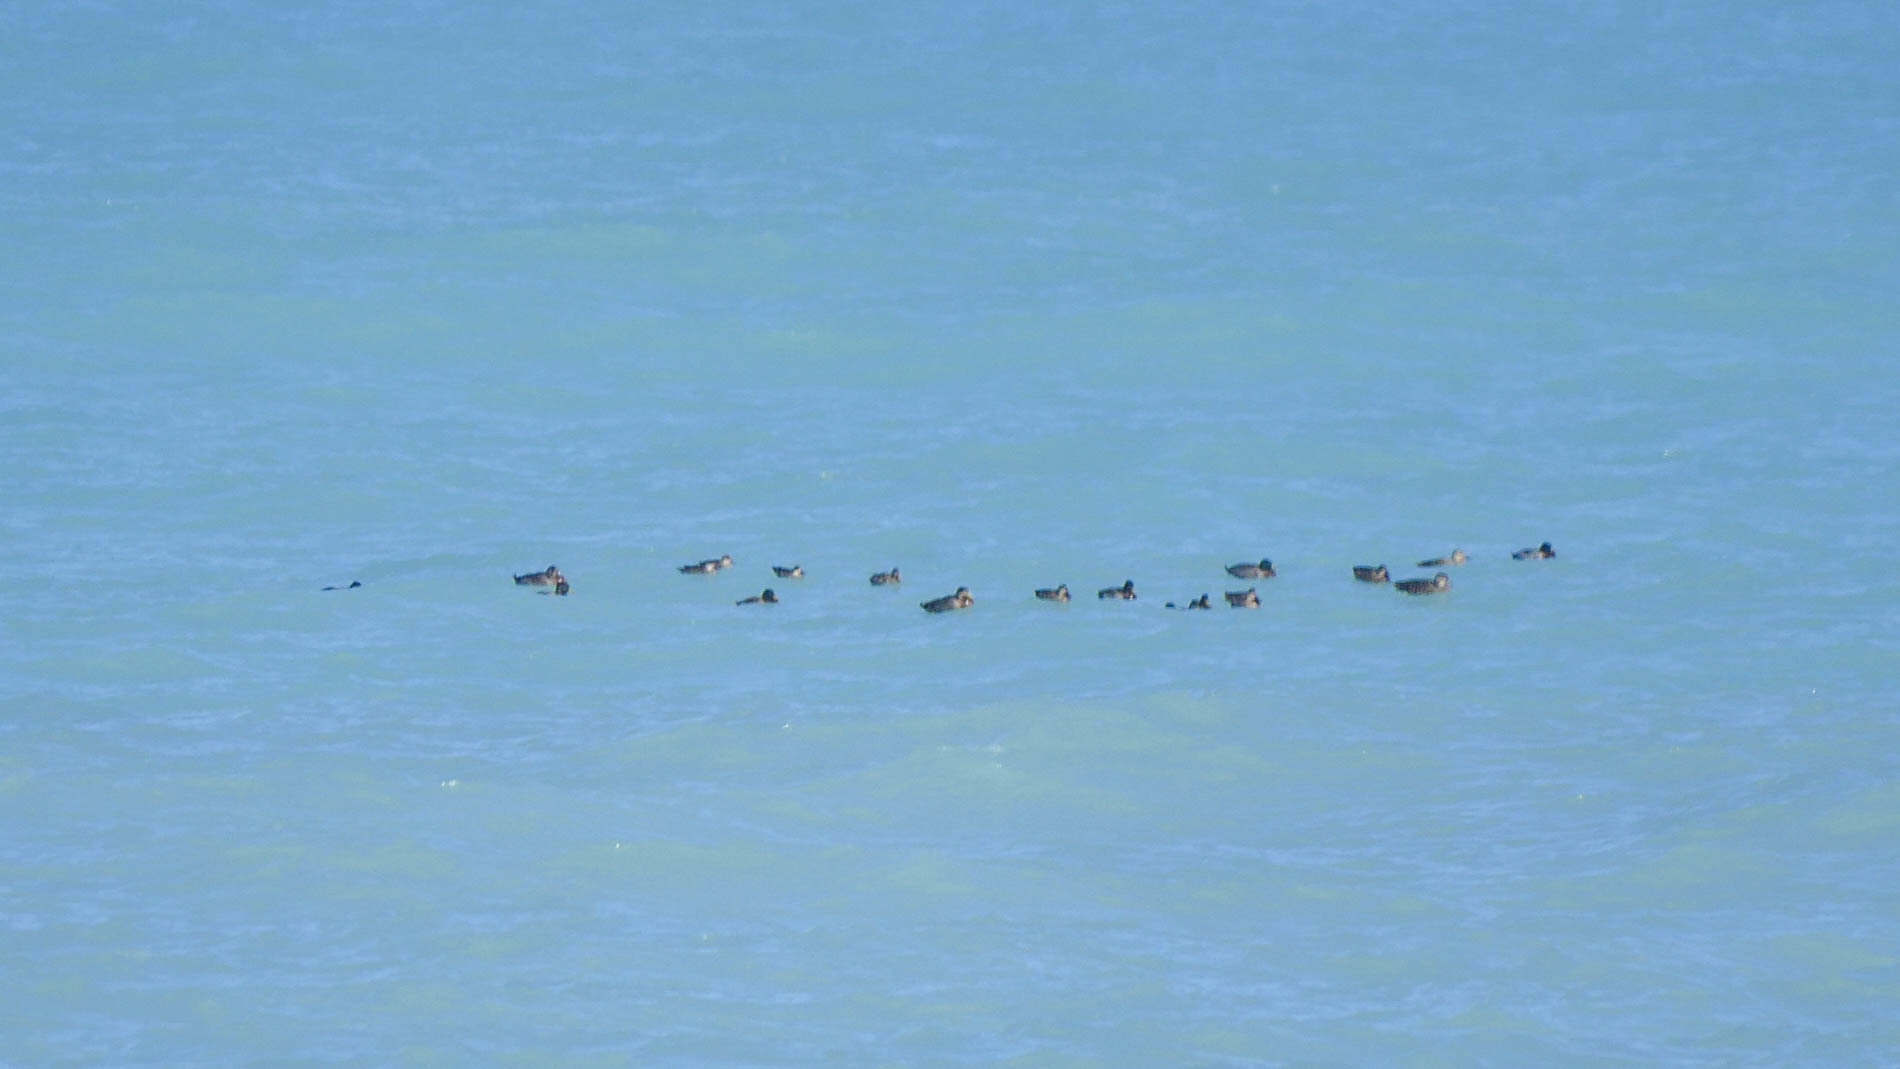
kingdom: Animalia
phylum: Chordata
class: Aves
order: Anseriformes
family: Anatidae
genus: Anas
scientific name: Anas platyrhynchos
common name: Mallard
